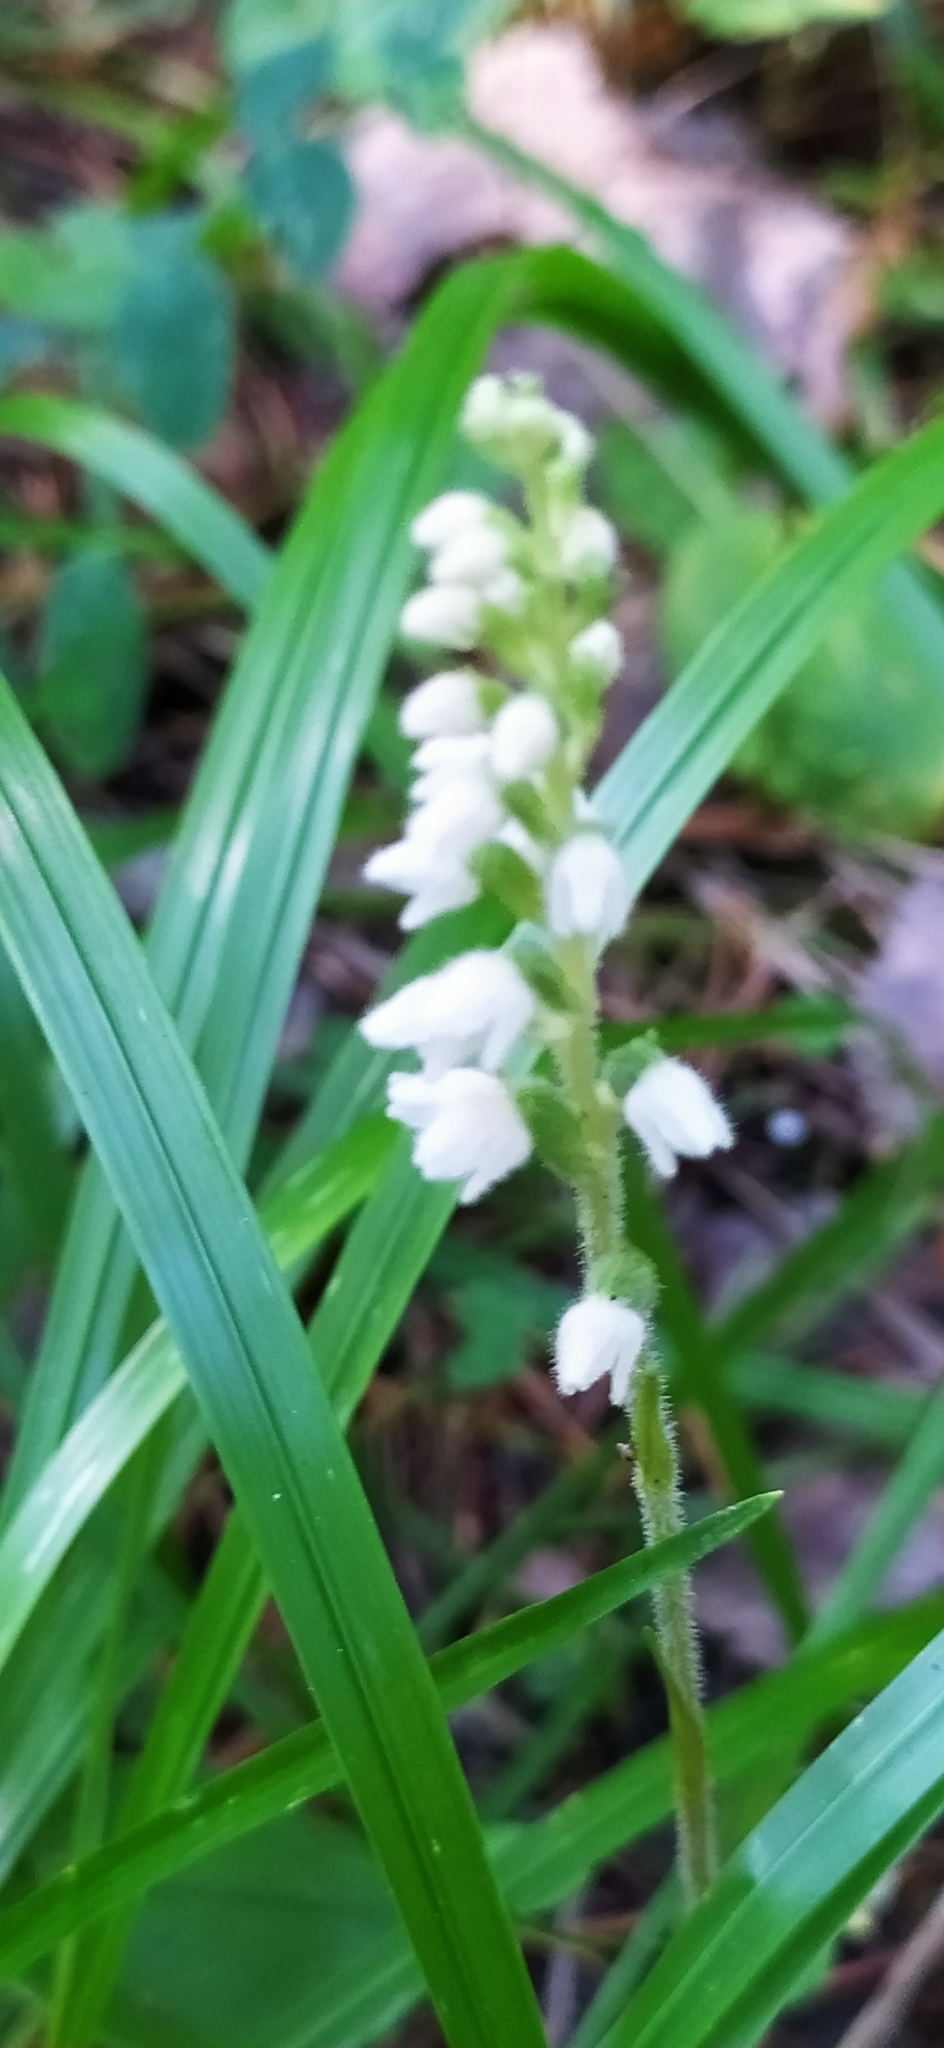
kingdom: Plantae
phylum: Tracheophyta
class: Liliopsida
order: Asparagales
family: Orchidaceae
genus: Goodyera
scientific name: Goodyera repens
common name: Creeping lady's-tresses
